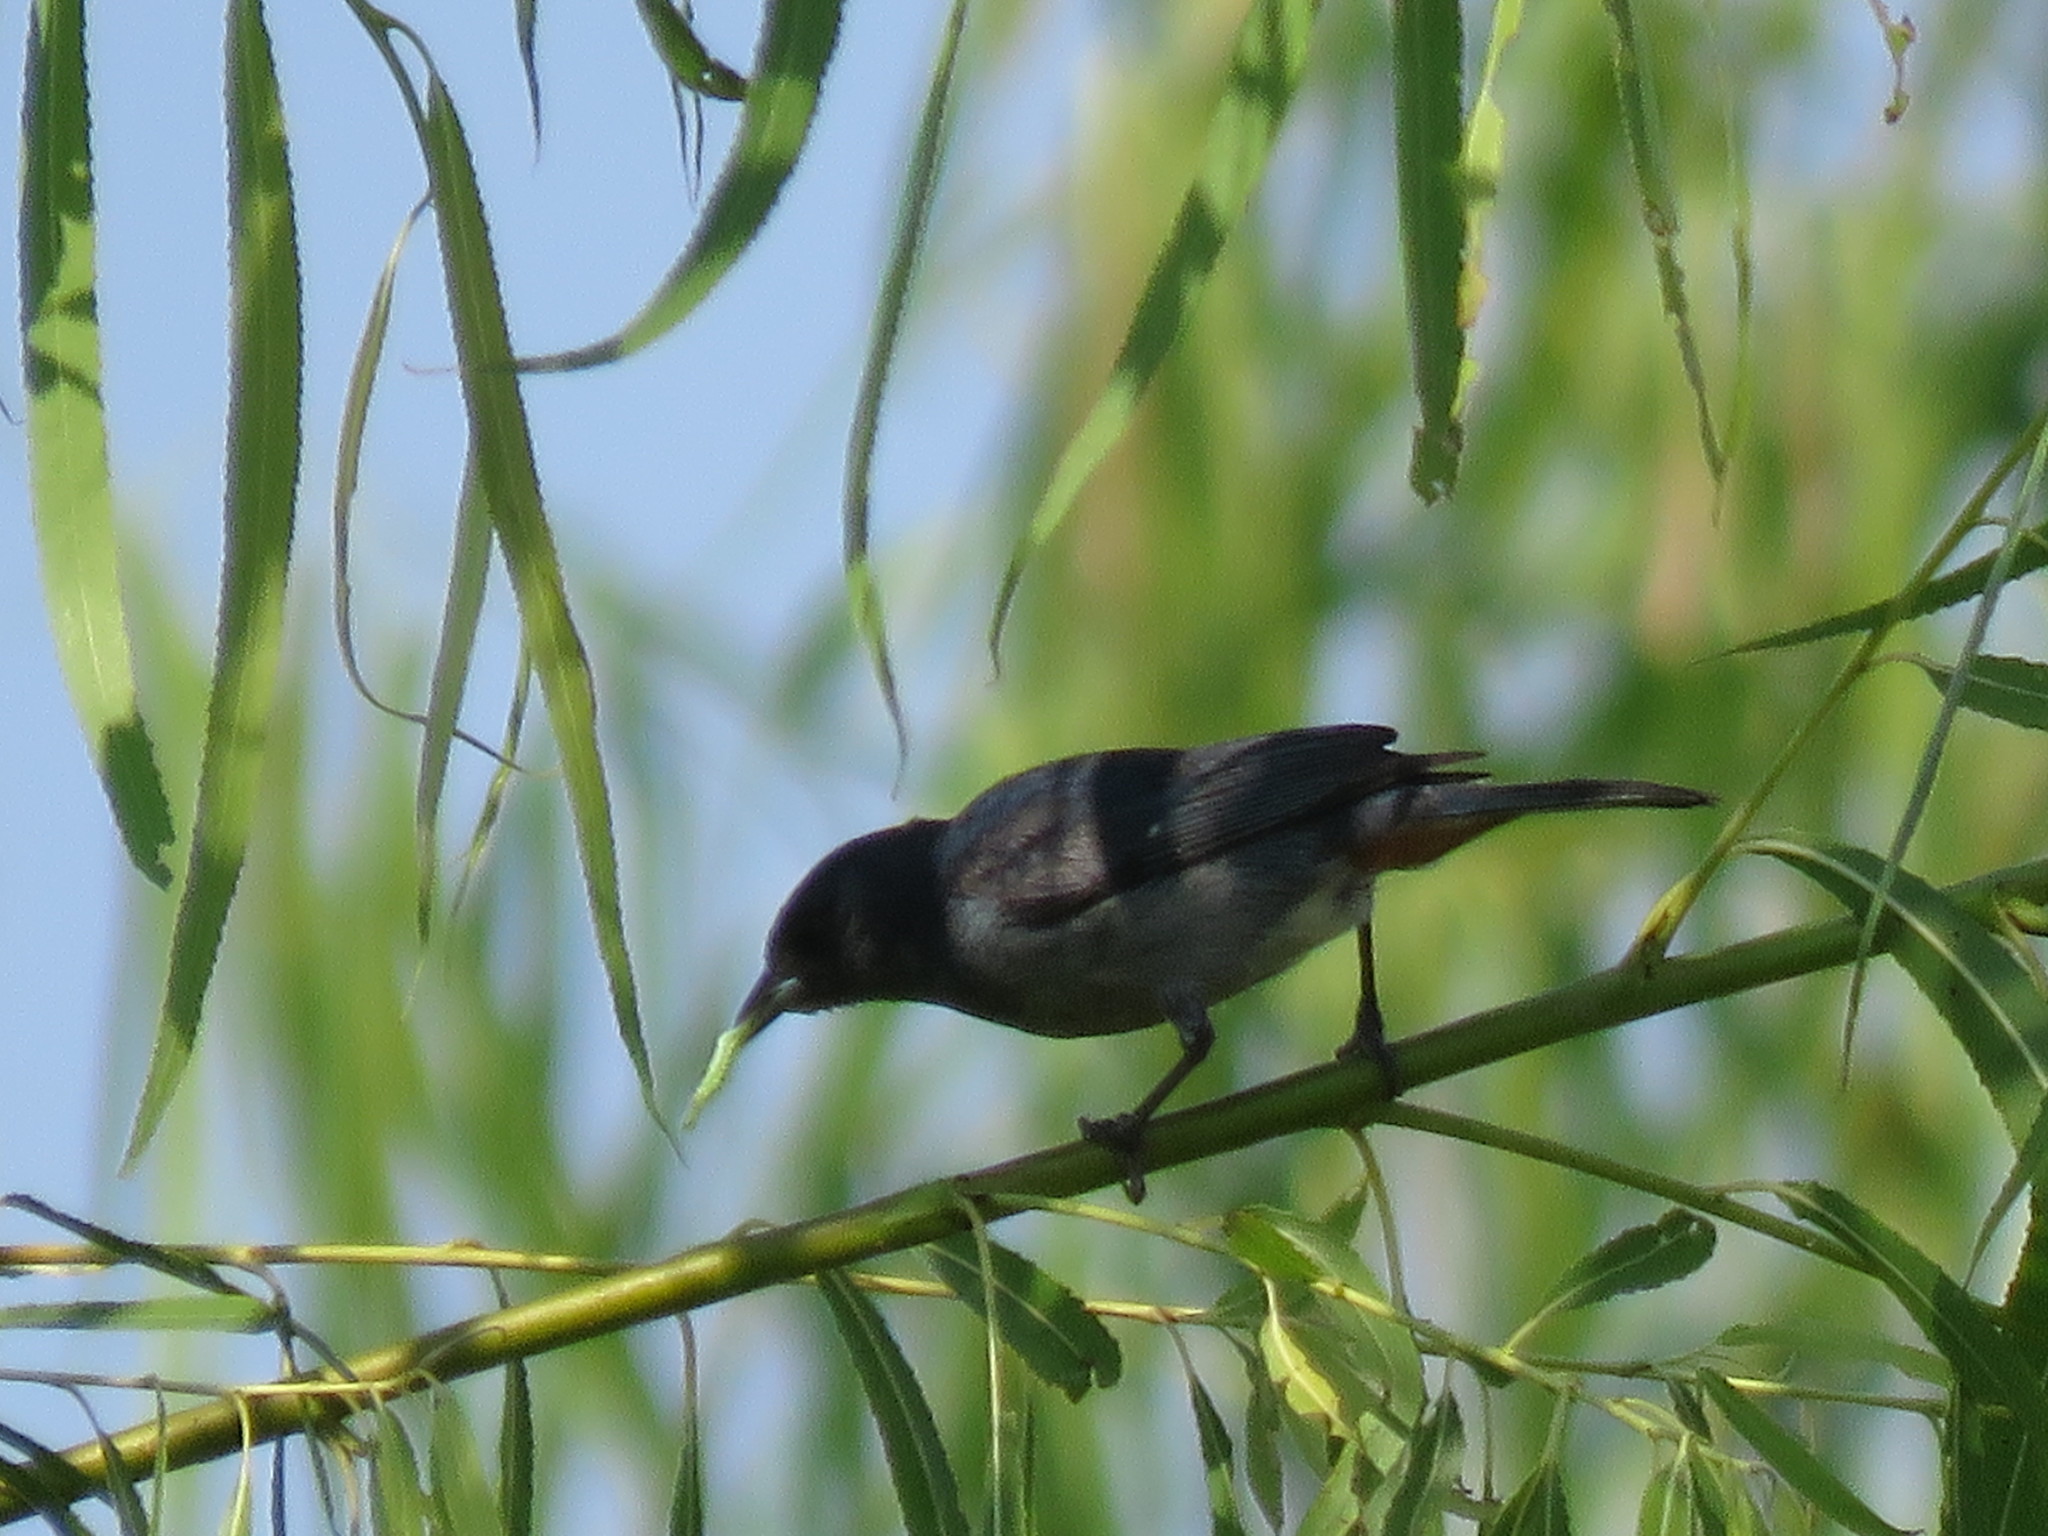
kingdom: Animalia
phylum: Chordata
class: Aves
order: Passeriformes
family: Thraupidae
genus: Conirostrum
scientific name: Conirostrum speciosum
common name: Chestnut-vented conebill
